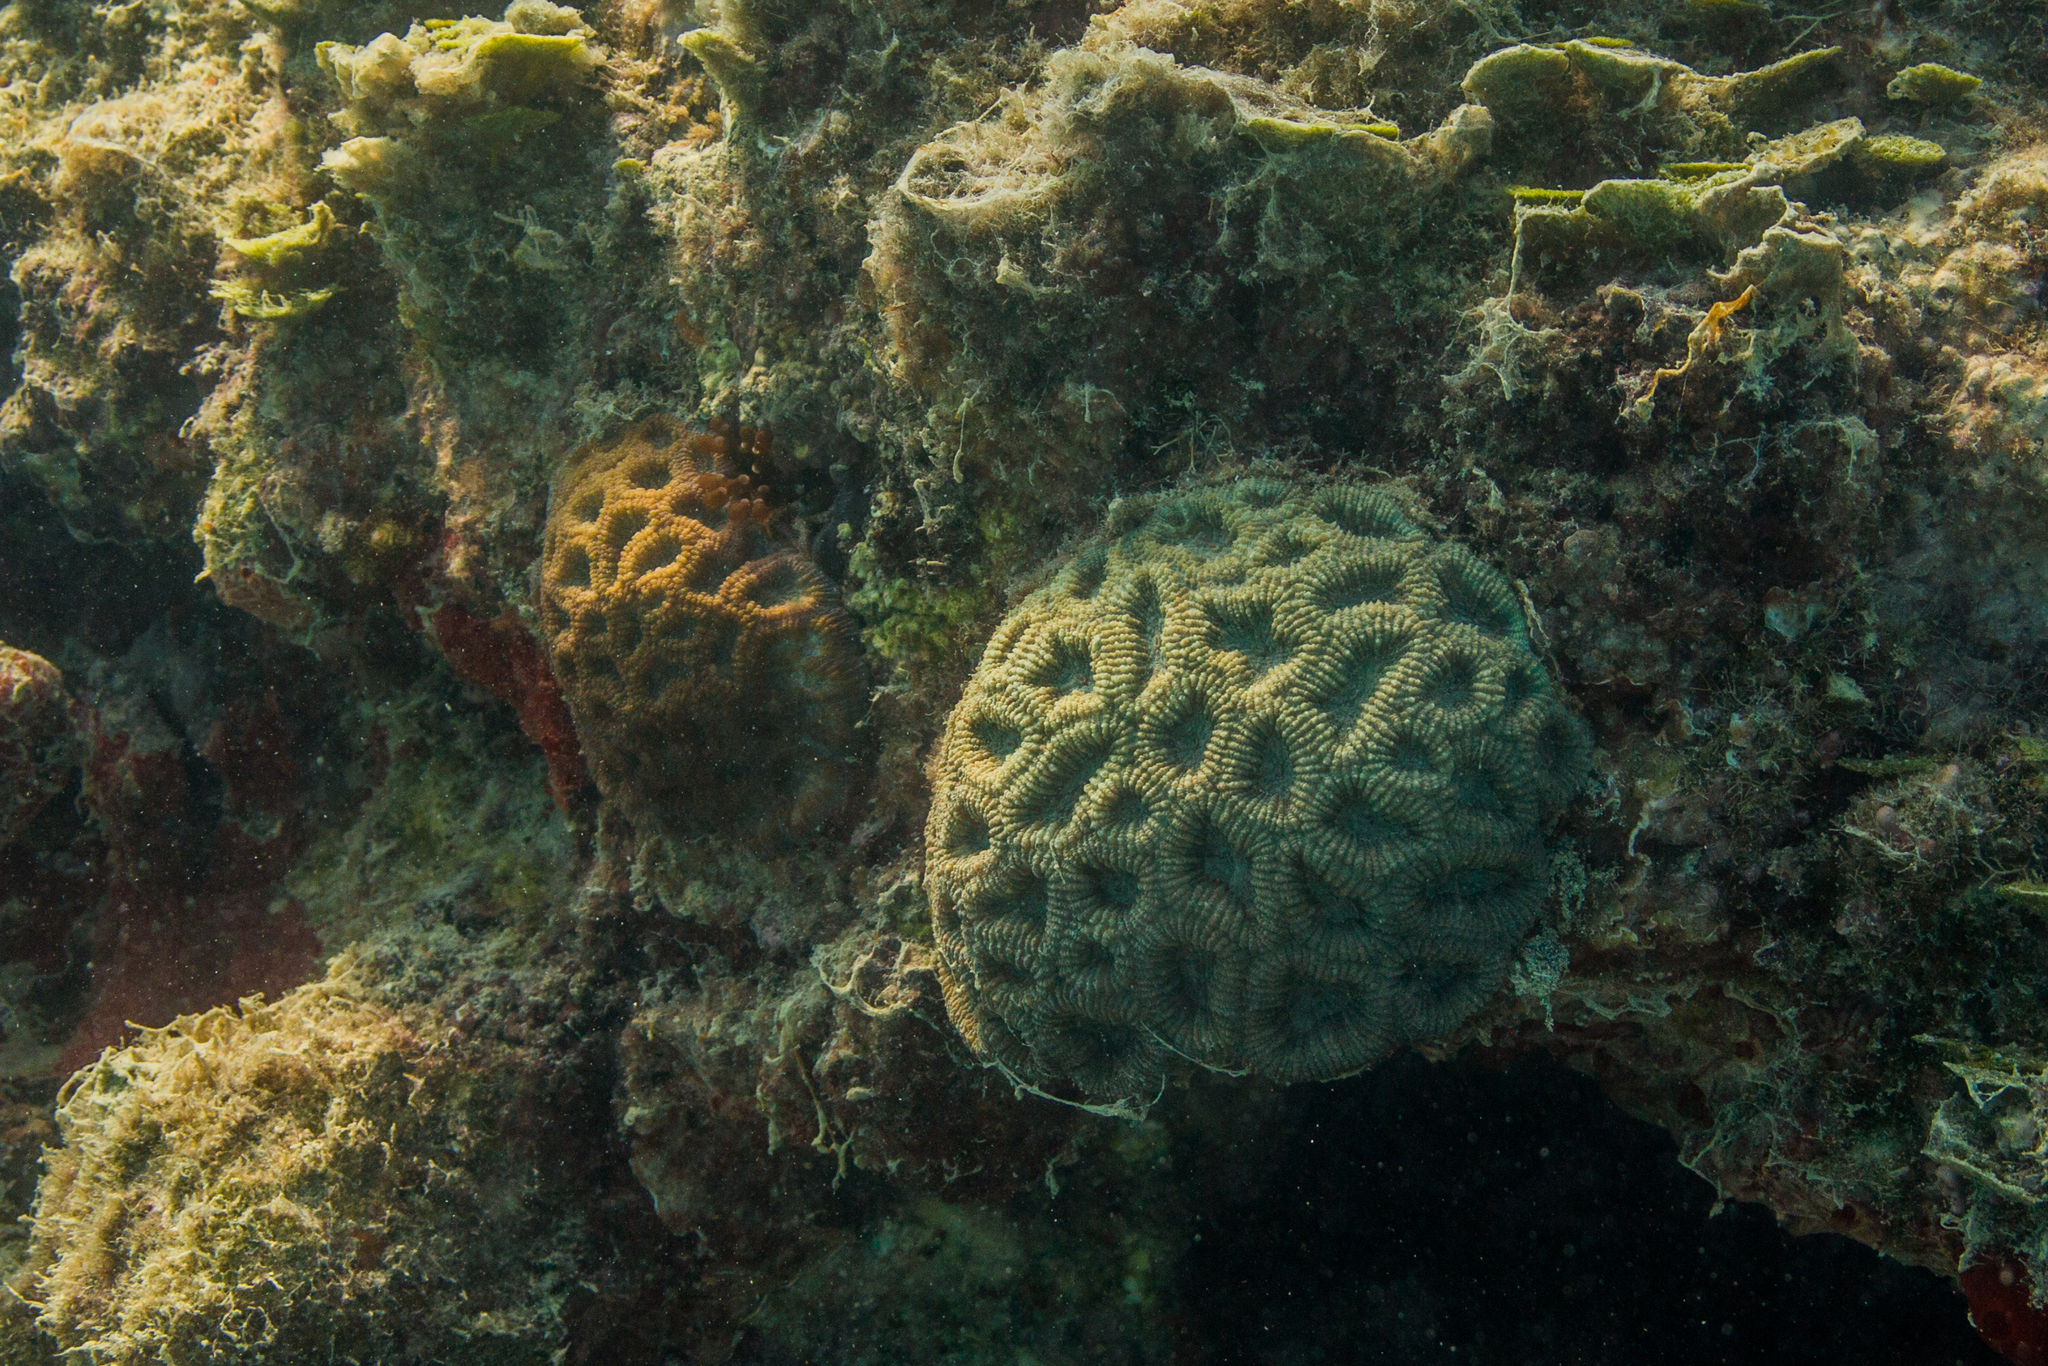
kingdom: Animalia
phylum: Cnidaria
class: Anthozoa
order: Scleractinia
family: Faviidae
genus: Mussismilia
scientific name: Mussismilia hispida
